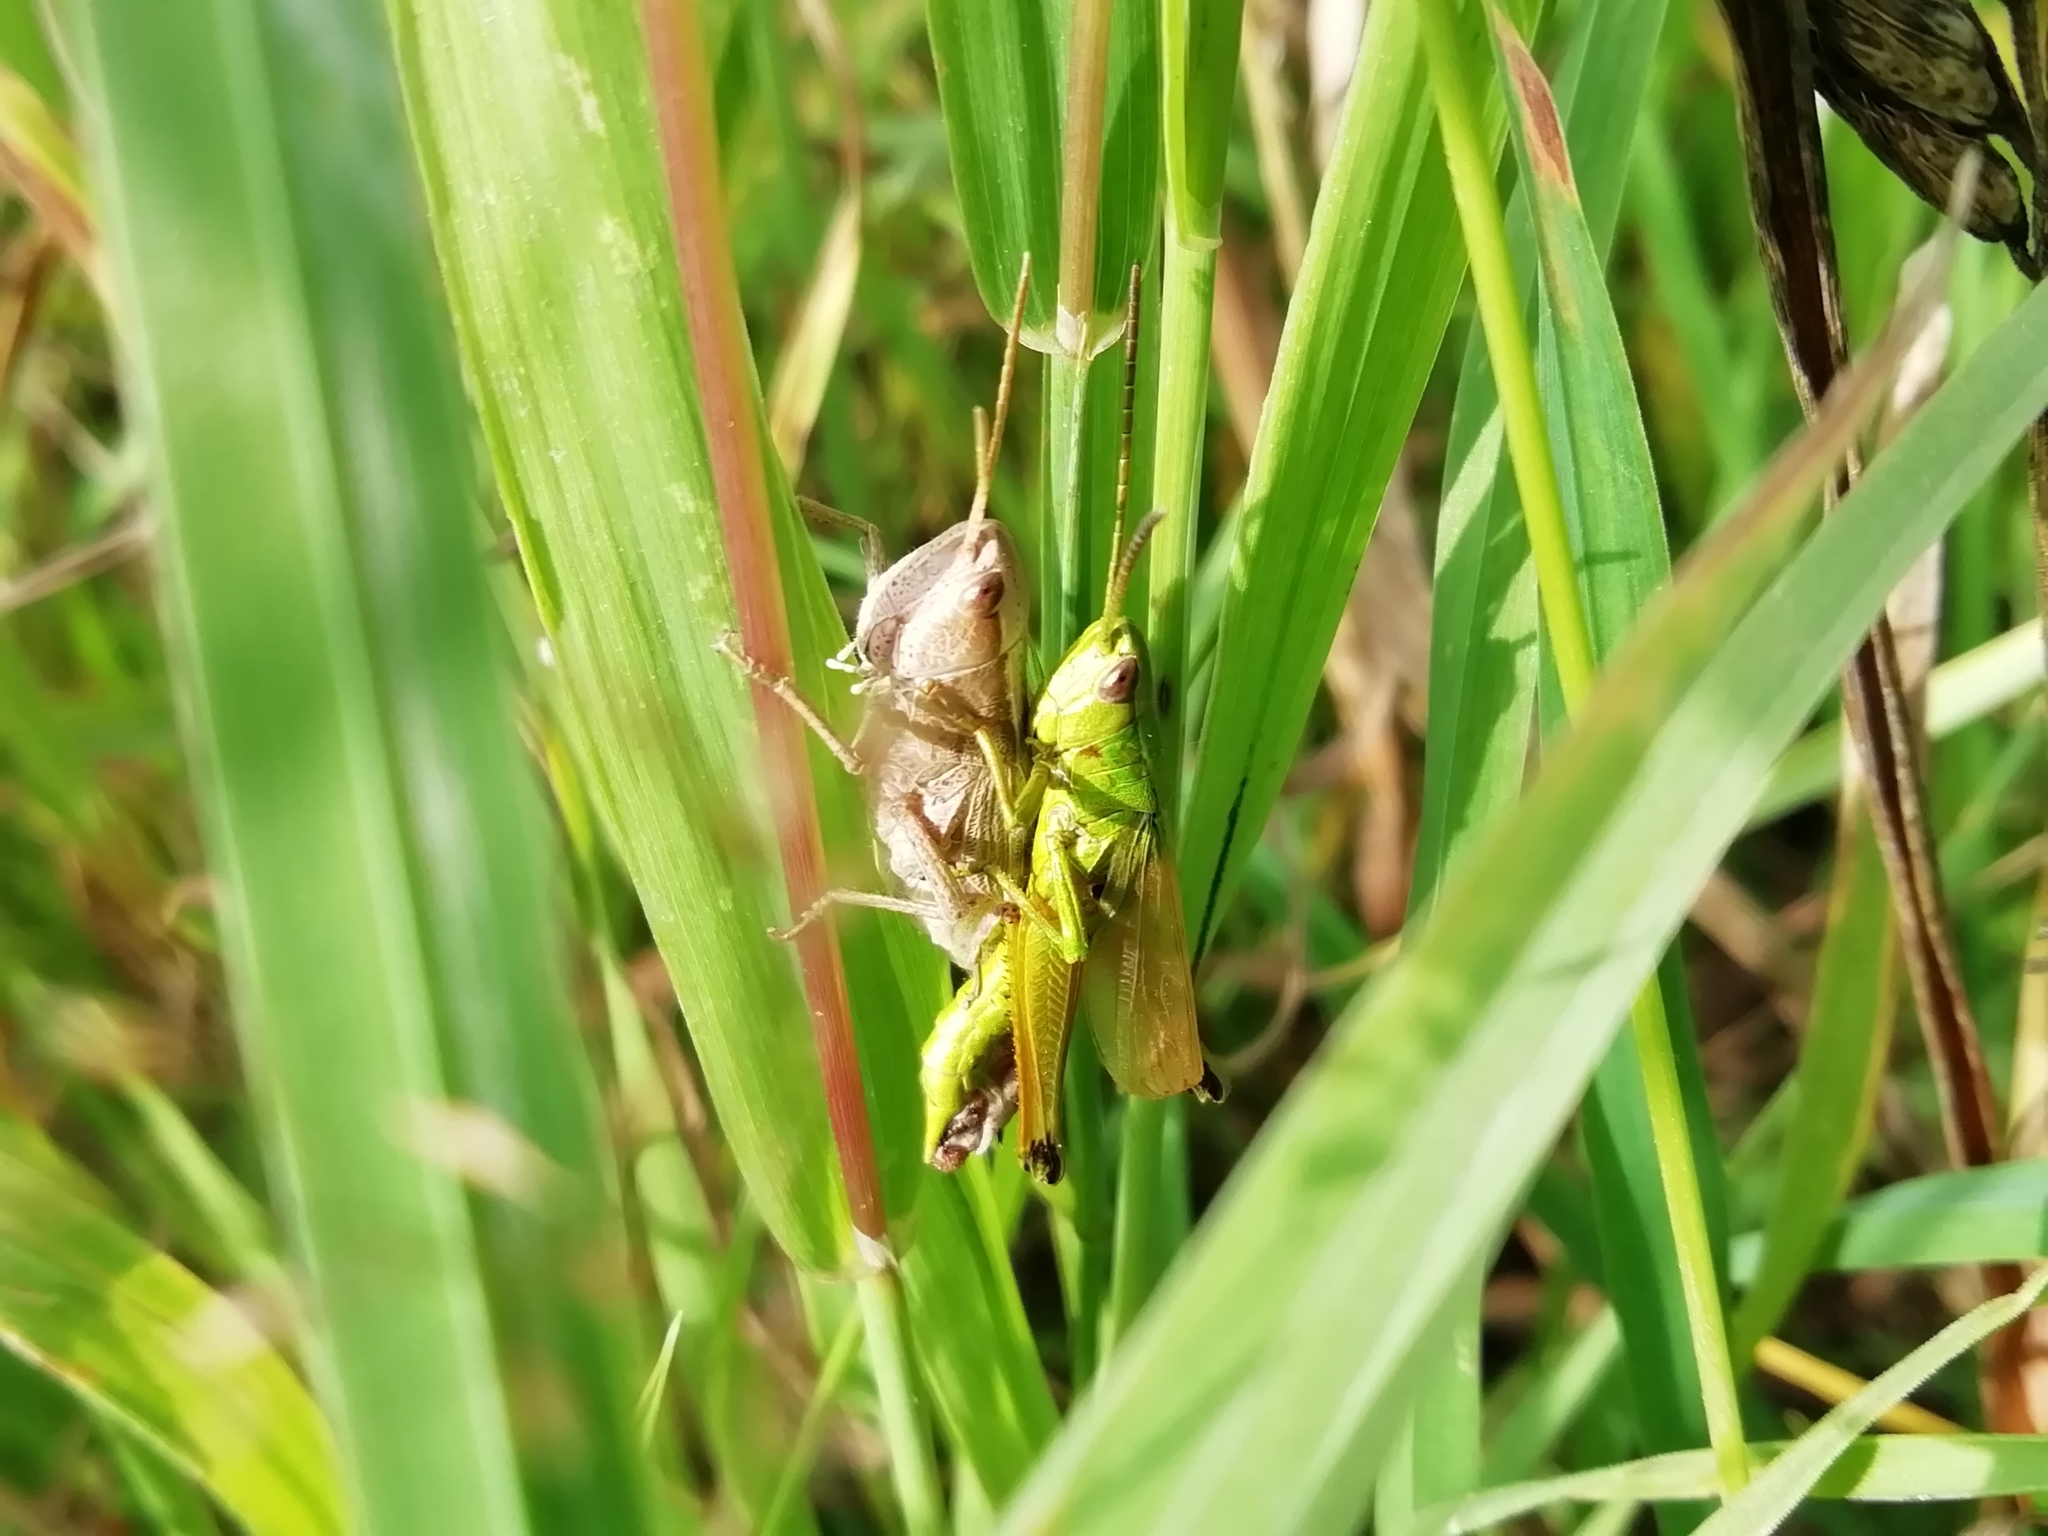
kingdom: Animalia
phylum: Arthropoda
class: Insecta
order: Orthoptera
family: Acrididae
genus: Chrysochraon
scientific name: Chrysochraon dispar
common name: Large gold grasshopper
